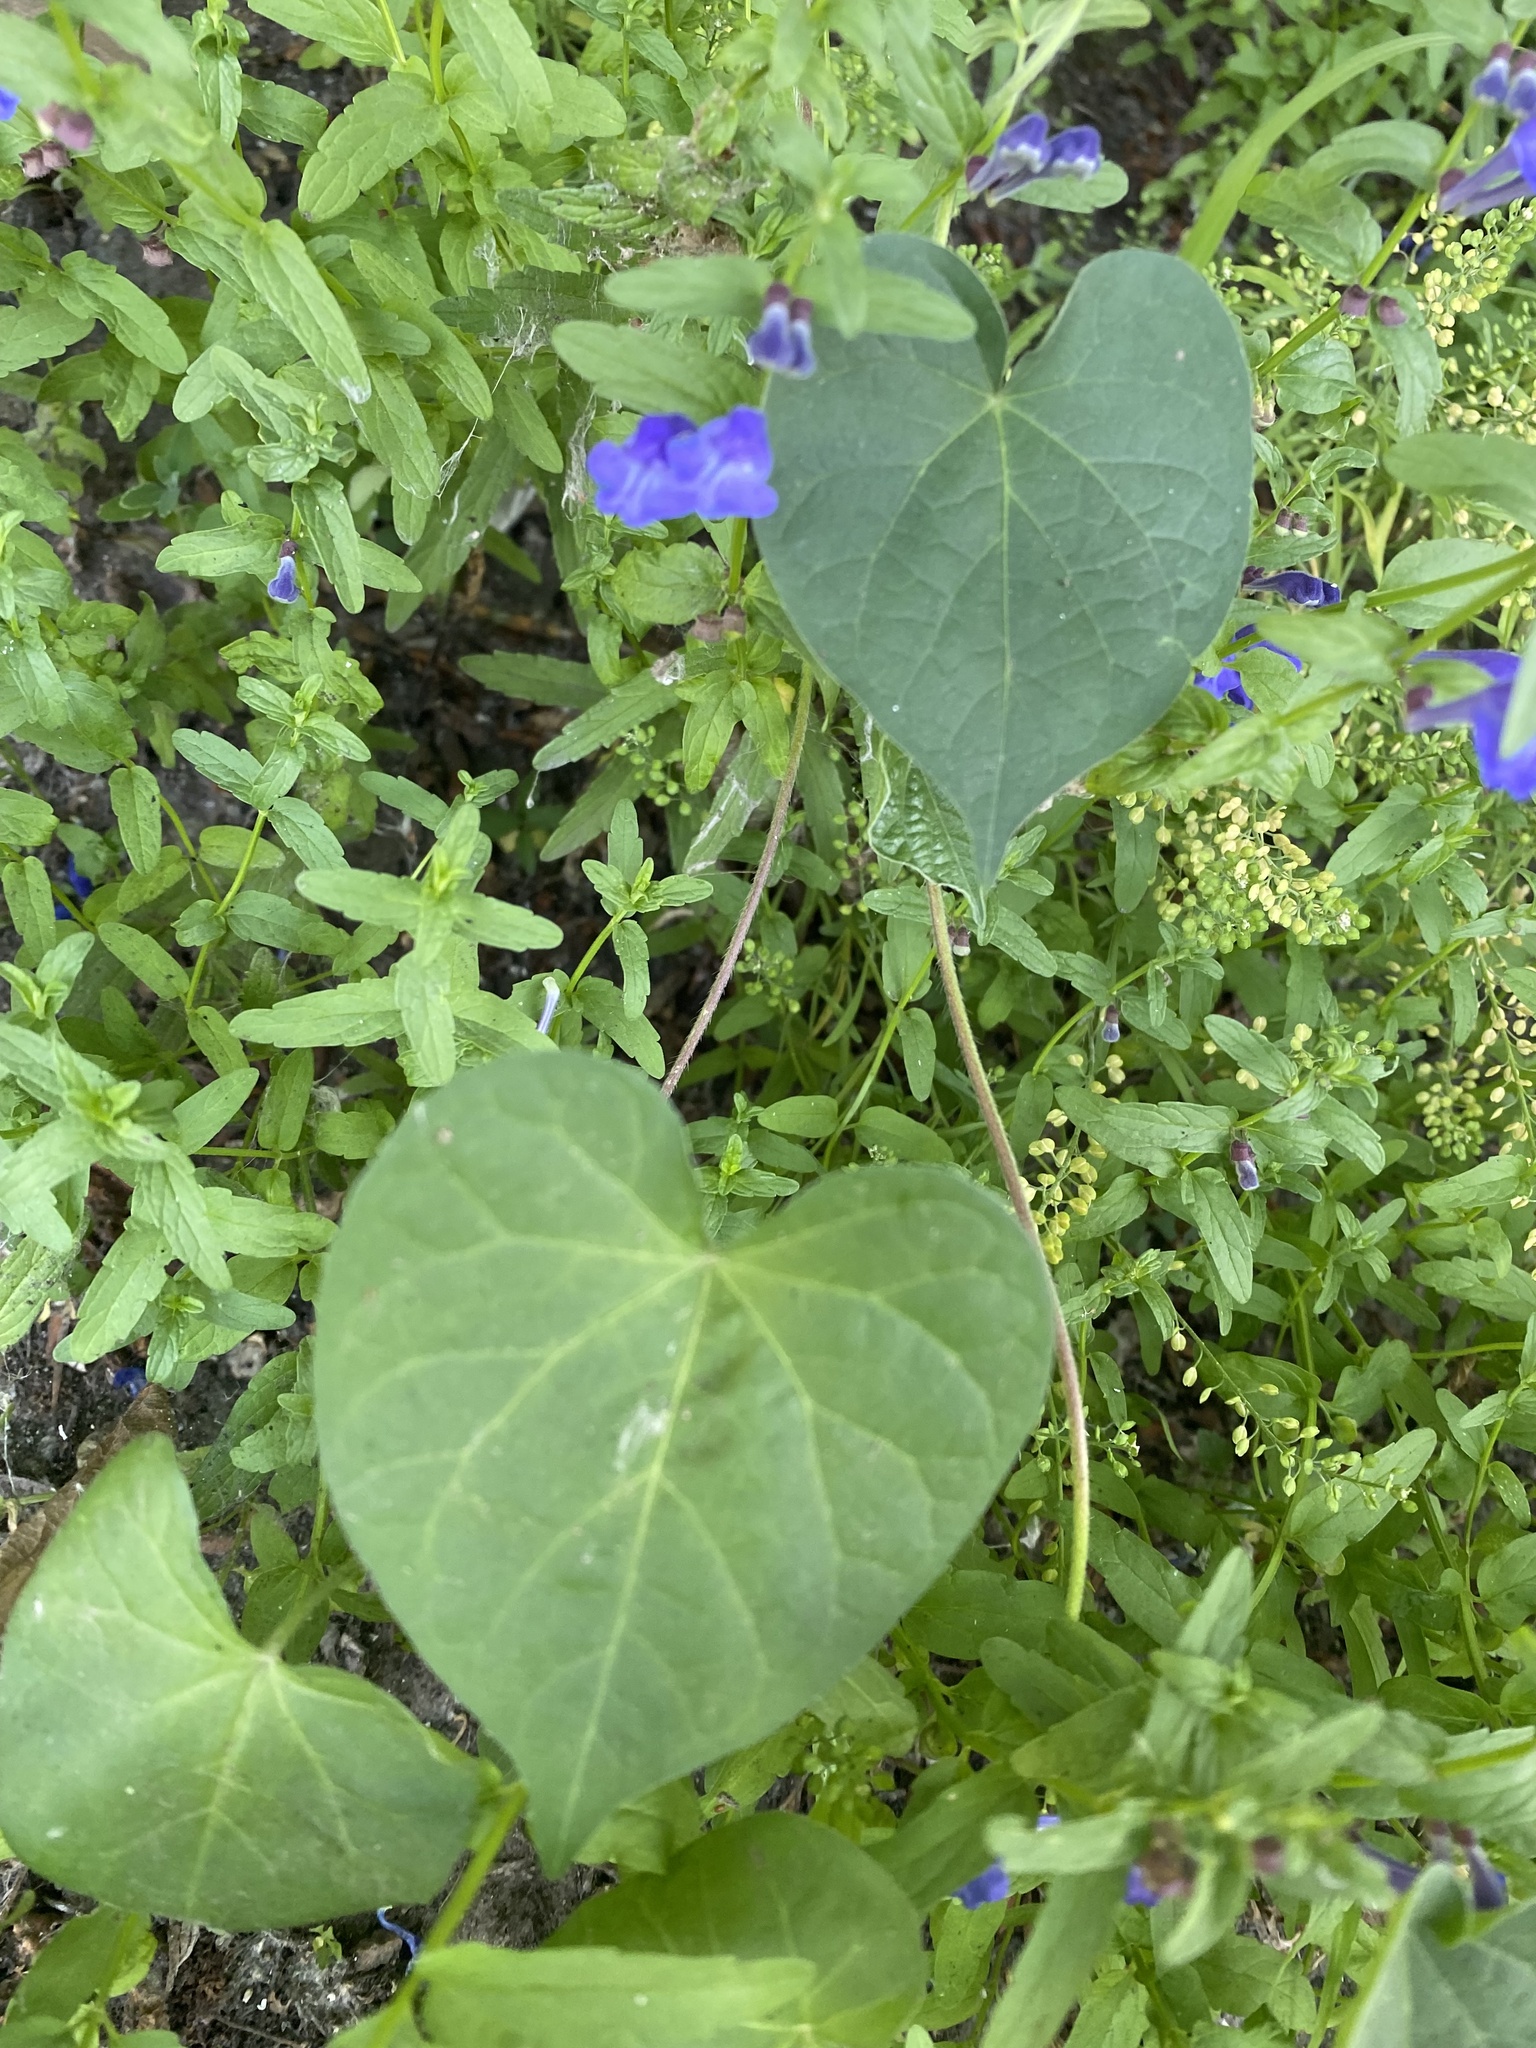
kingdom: Plantae
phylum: Tracheophyta
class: Magnoliopsida
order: Solanales
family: Convolvulaceae
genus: Ipomoea
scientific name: Ipomoea purpurea
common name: Common morning-glory
